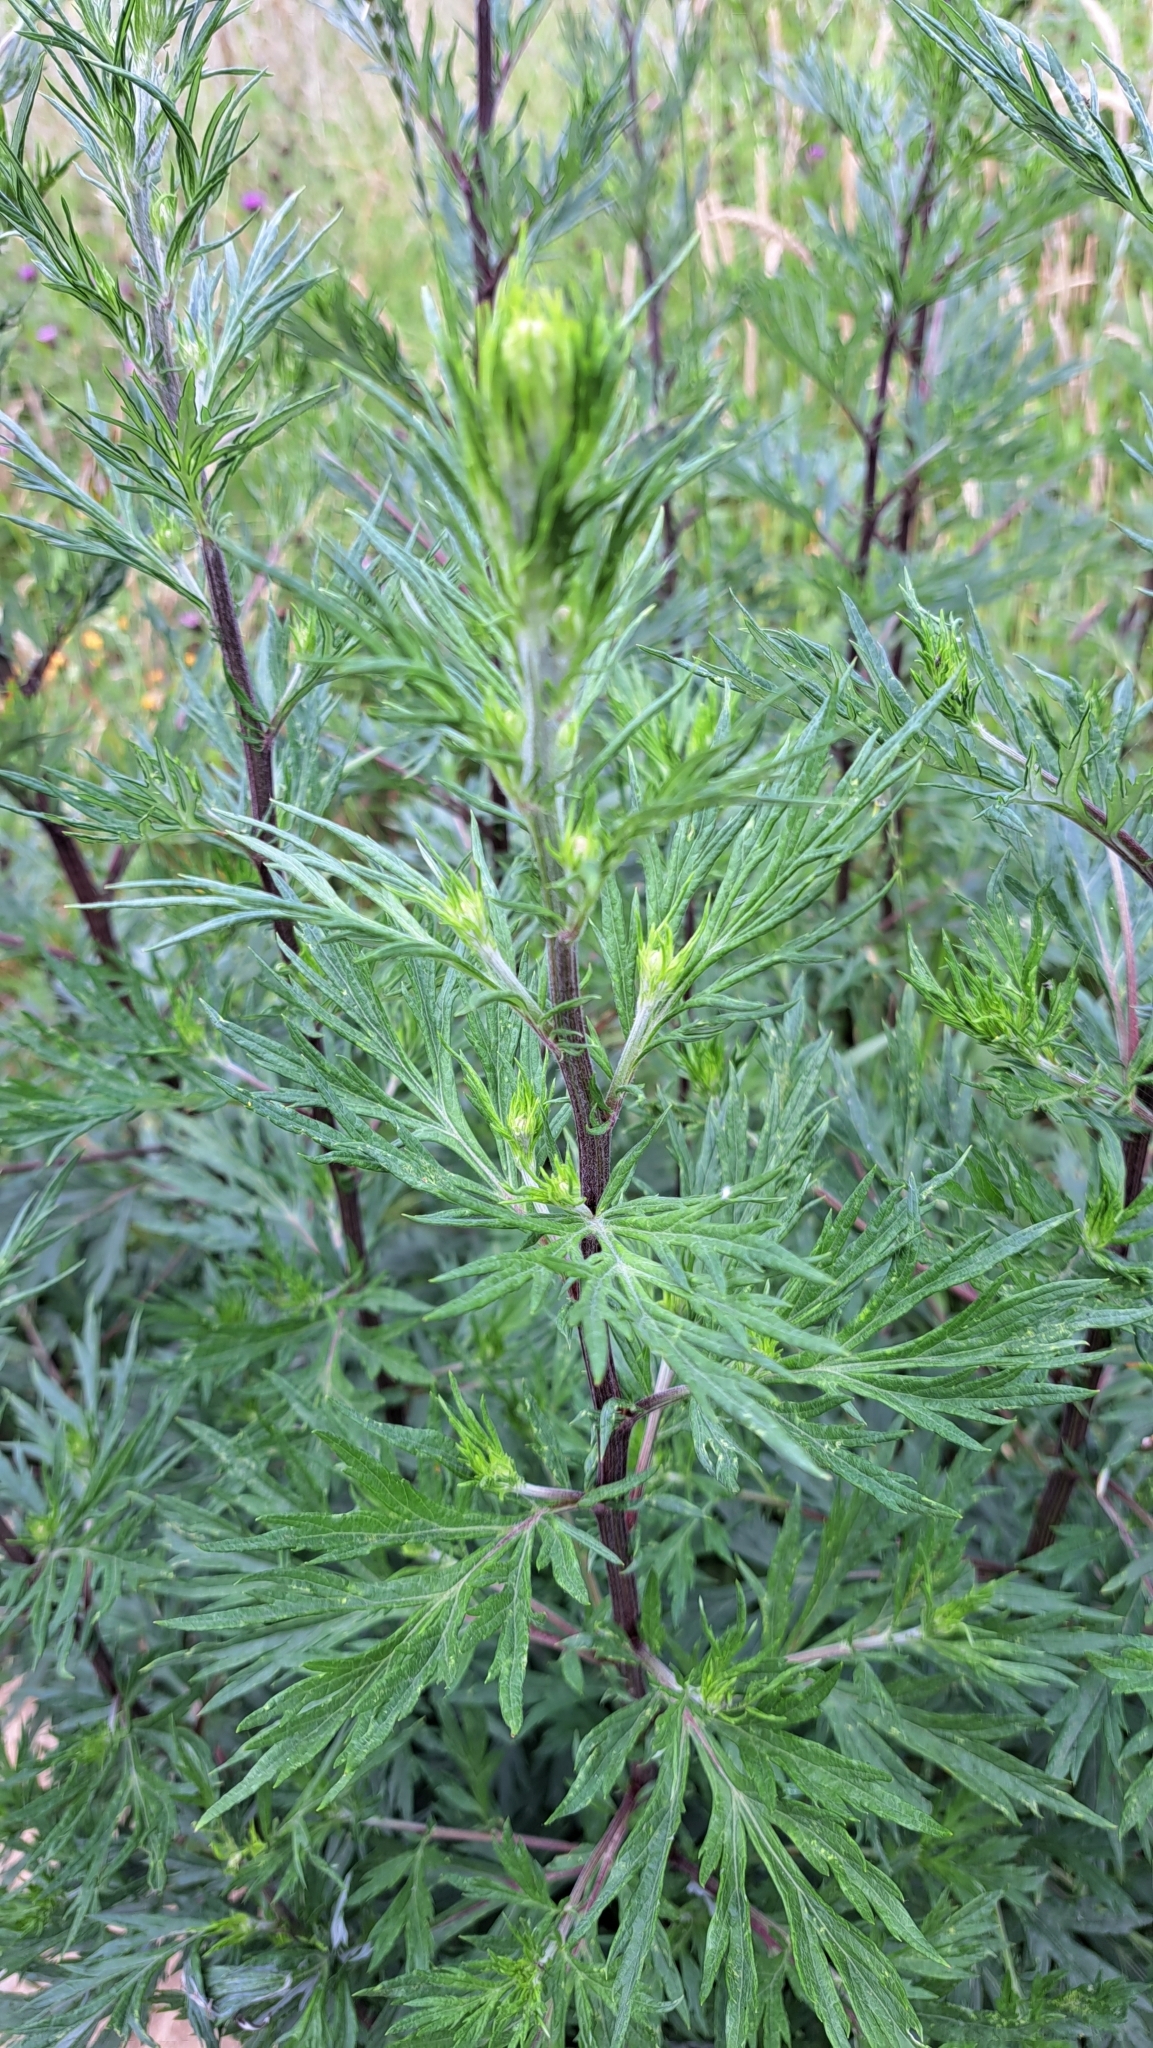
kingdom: Plantae
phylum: Tracheophyta
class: Magnoliopsida
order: Asterales
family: Asteraceae
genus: Artemisia
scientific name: Artemisia vulgaris
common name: Mugwort
